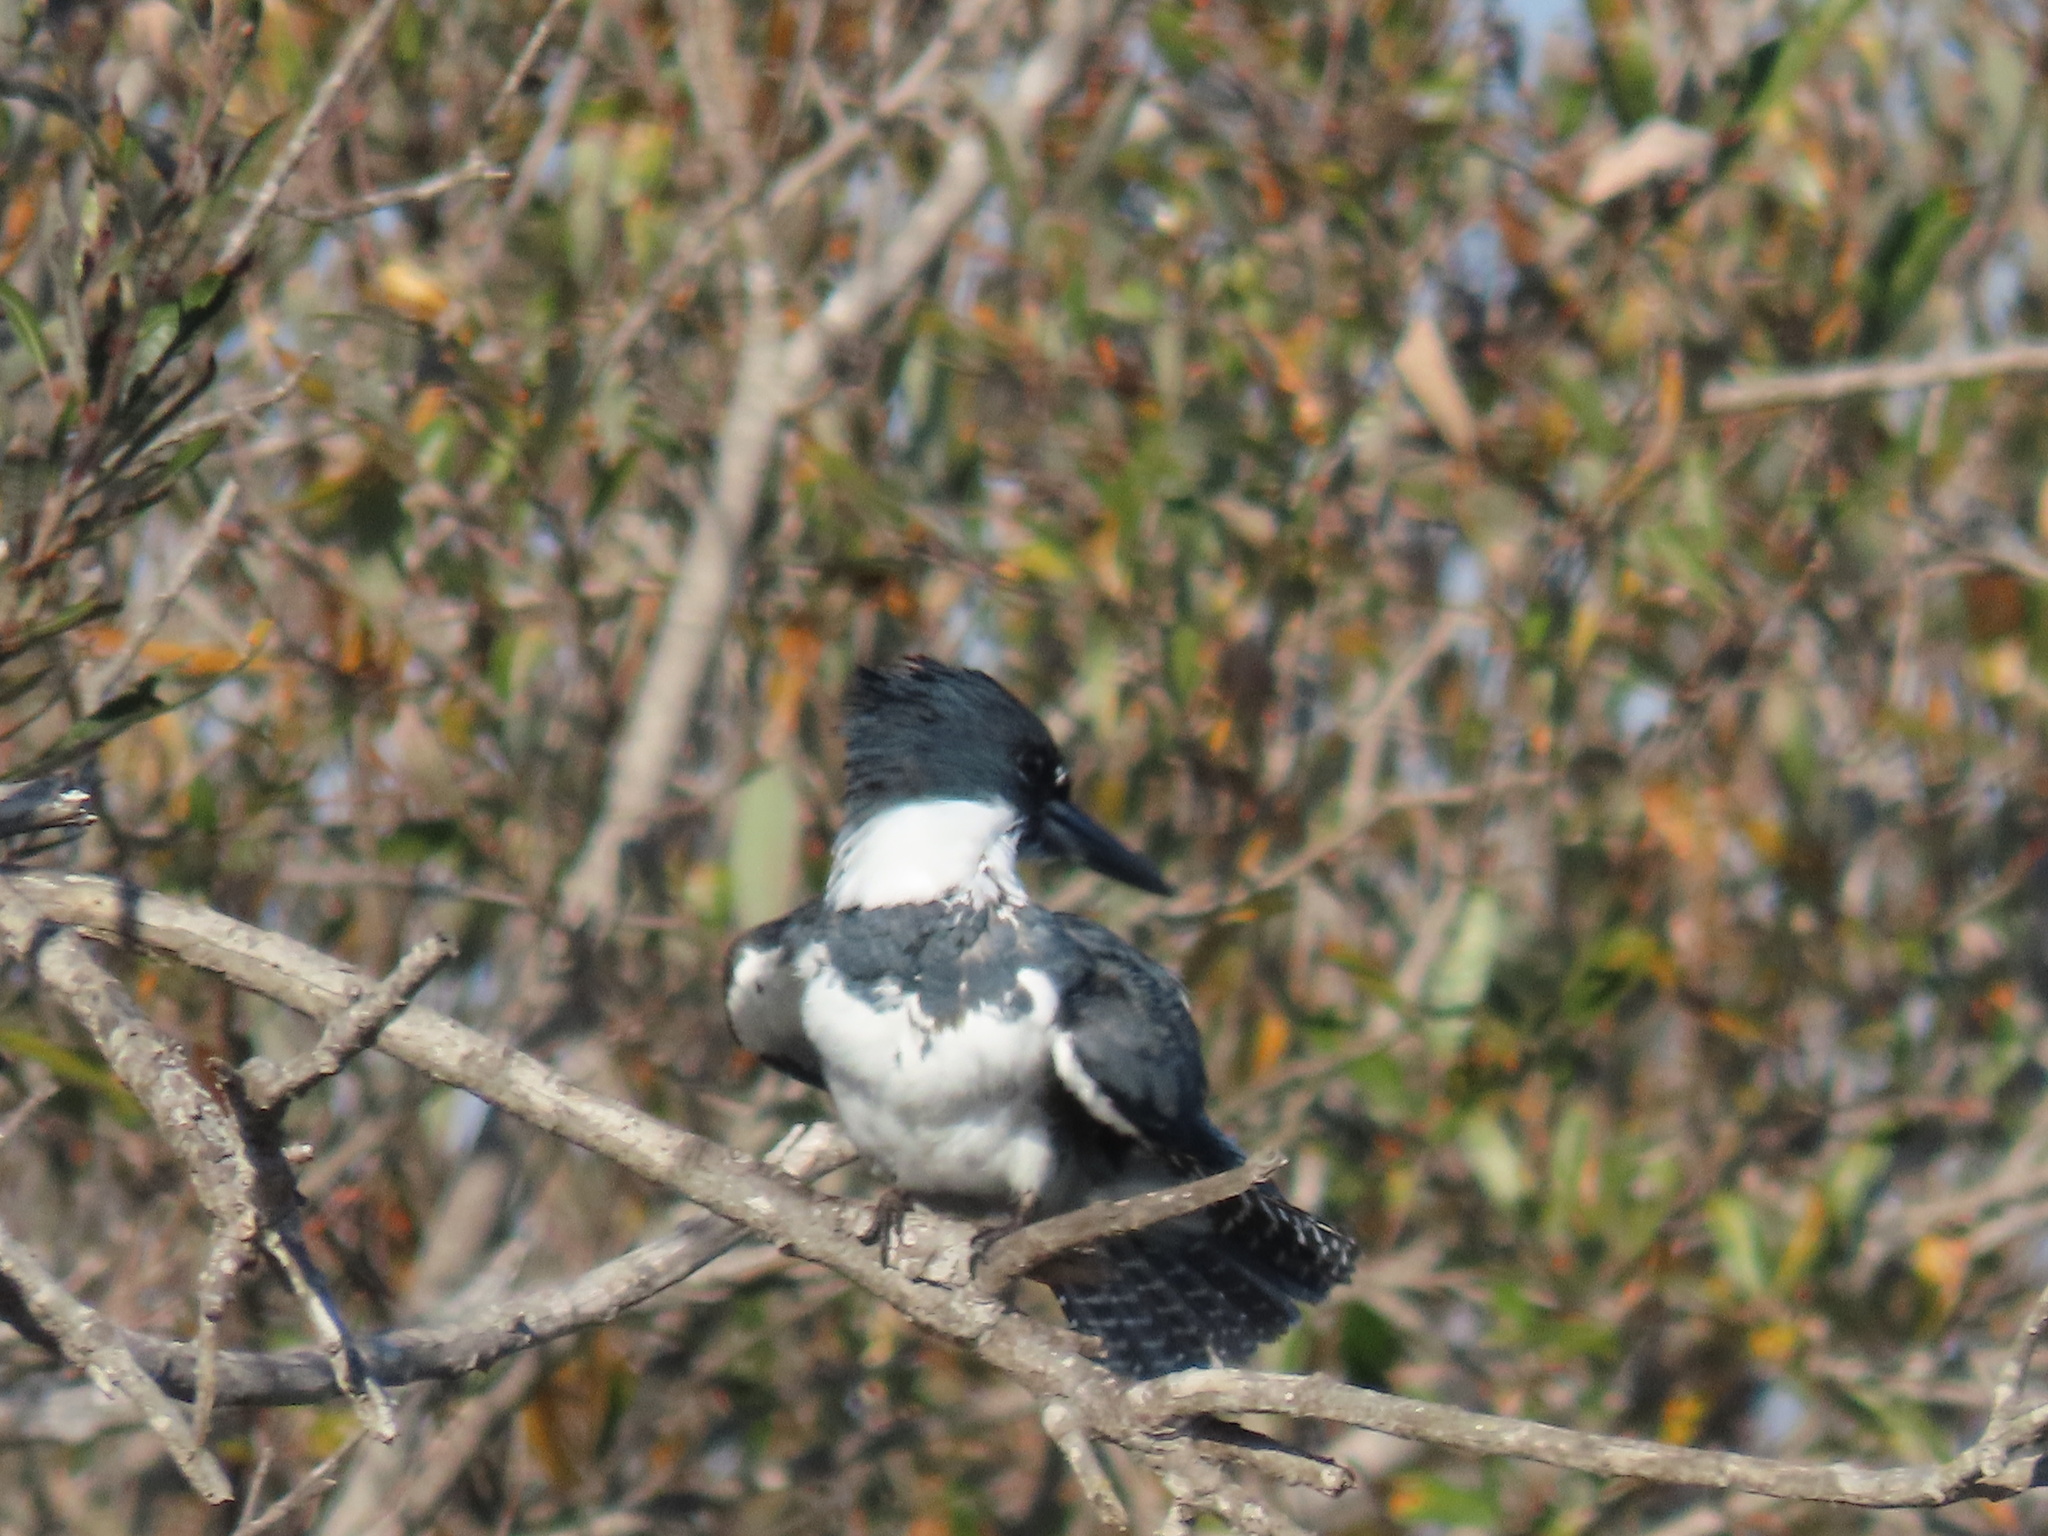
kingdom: Animalia
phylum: Chordata
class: Aves
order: Coraciiformes
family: Alcedinidae
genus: Megaceryle
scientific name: Megaceryle alcyon
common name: Belted kingfisher
